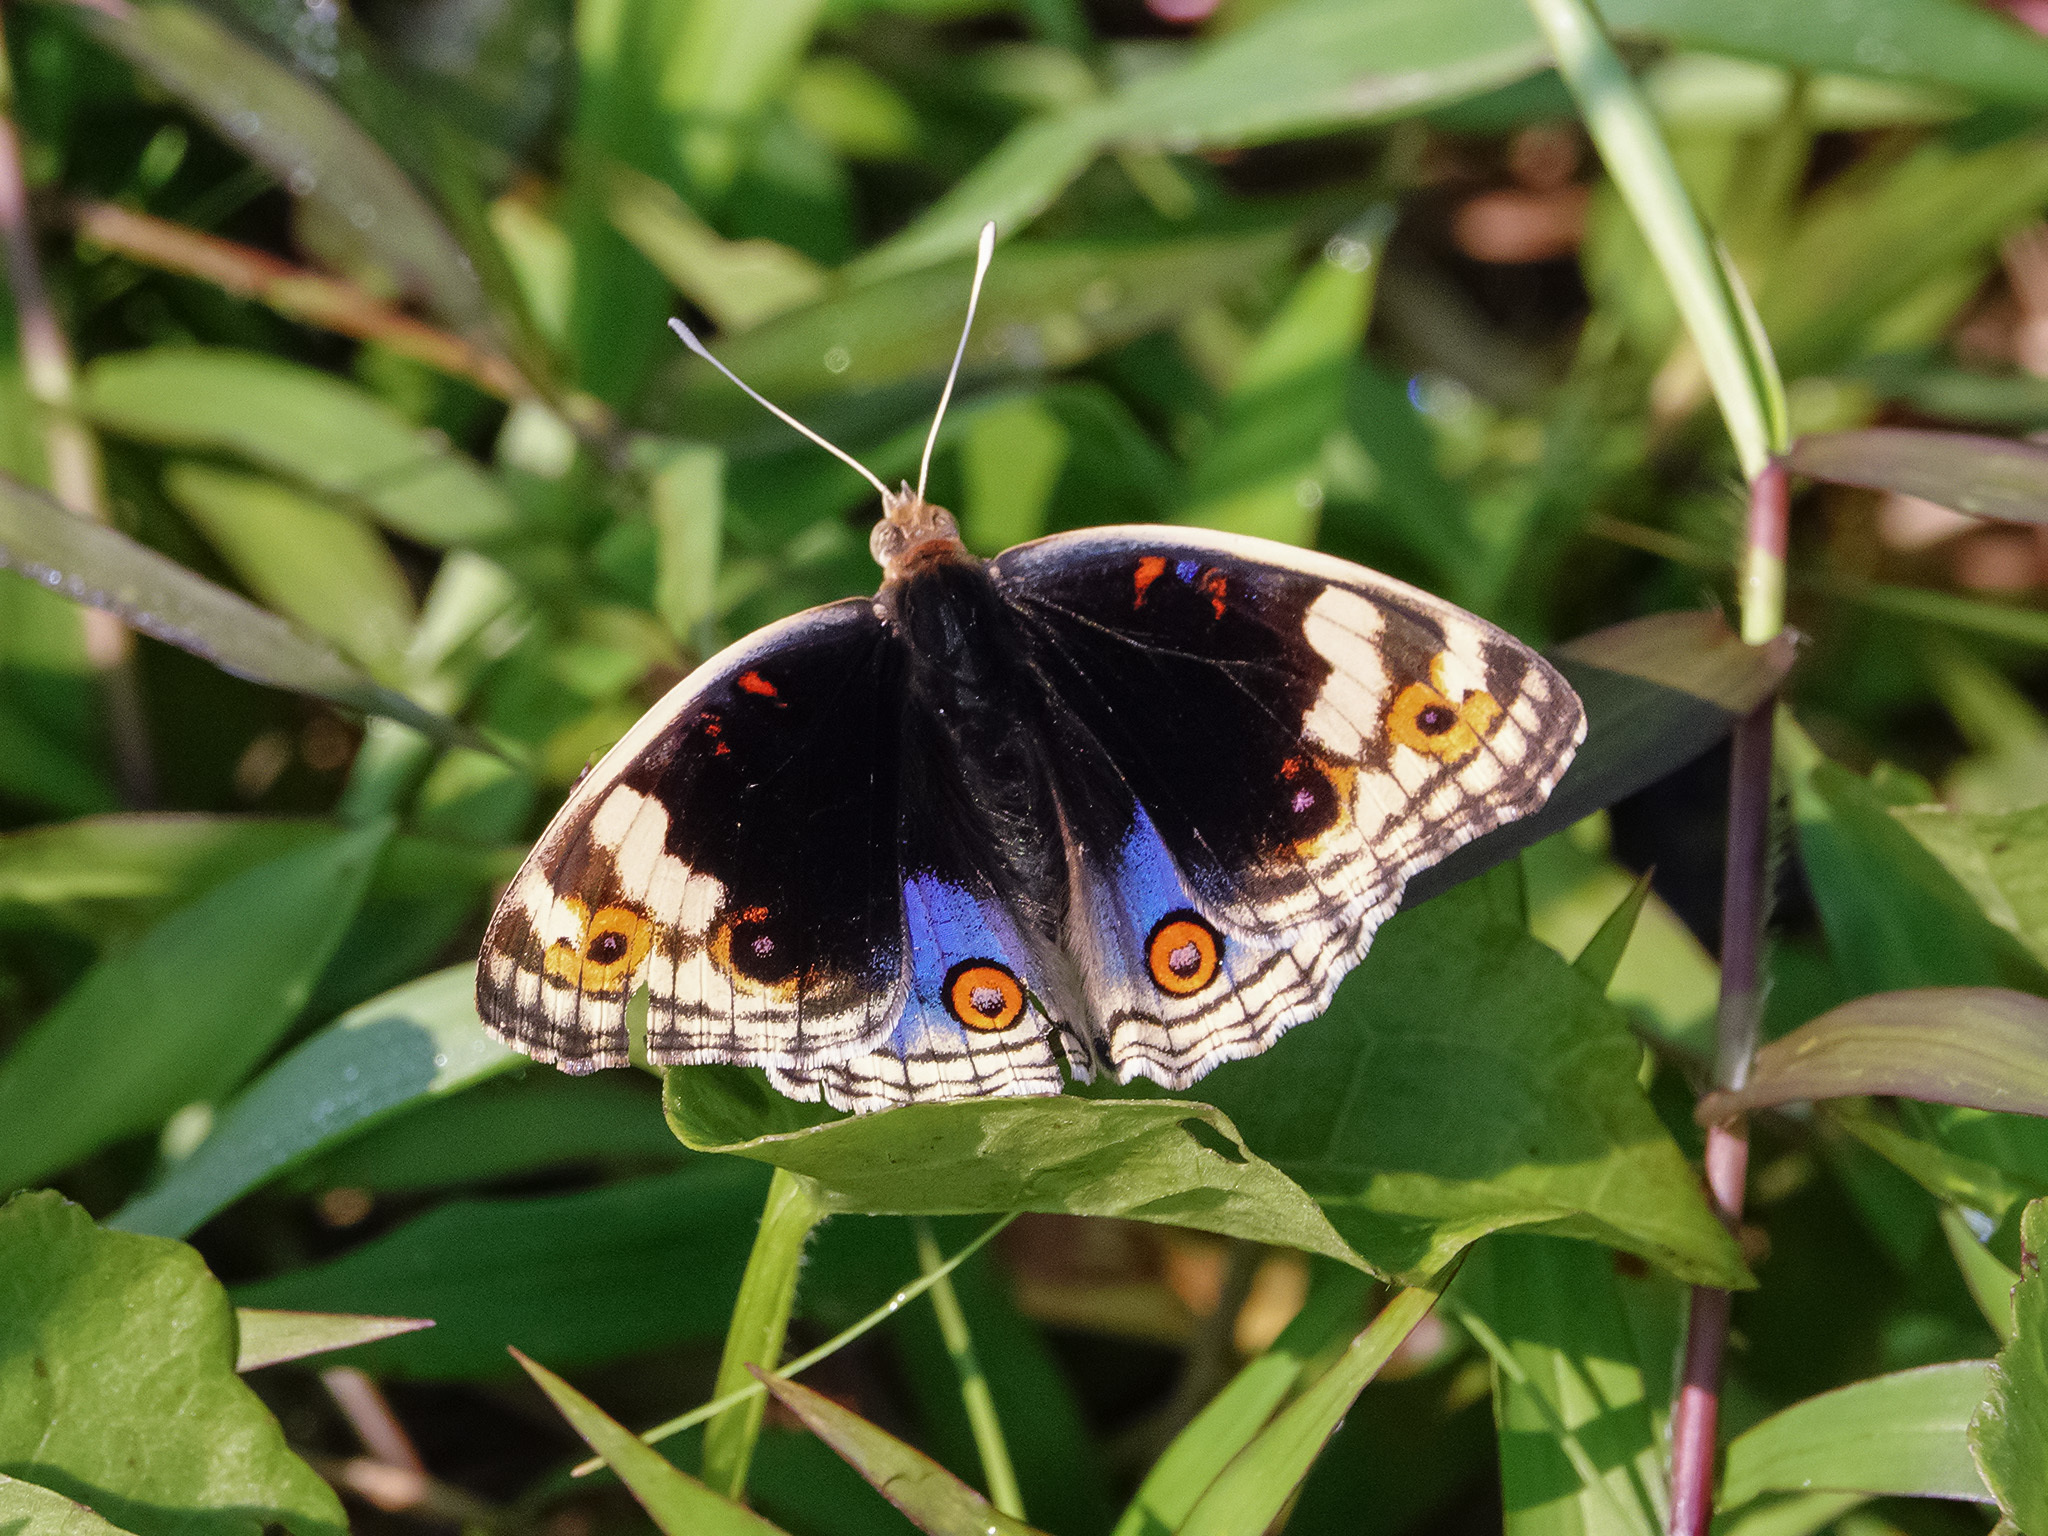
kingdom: Animalia
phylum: Arthropoda
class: Insecta
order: Lepidoptera
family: Nymphalidae
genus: Junonia
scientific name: Junonia orithya
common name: Blue pansy
